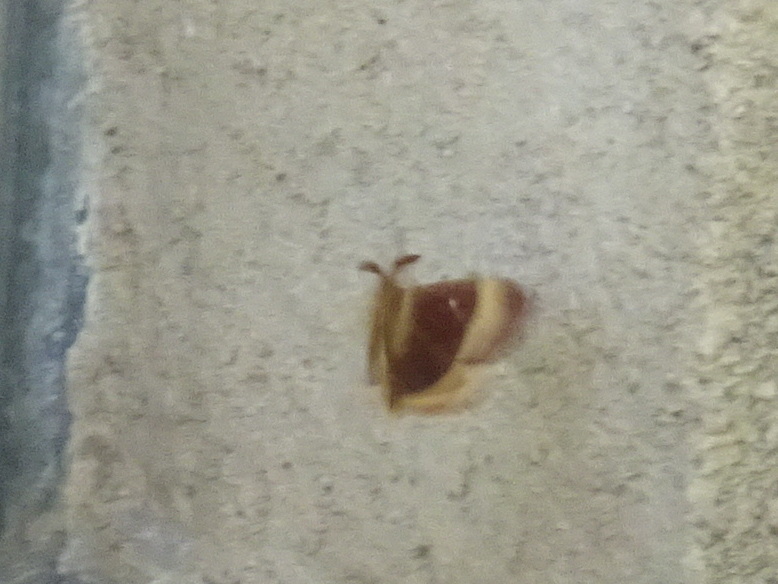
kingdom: Animalia
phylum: Arthropoda
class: Insecta
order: Lepidoptera
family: Lasiocampidae
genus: Lasiocampa
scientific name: Lasiocampa quercus
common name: Oak eggar
